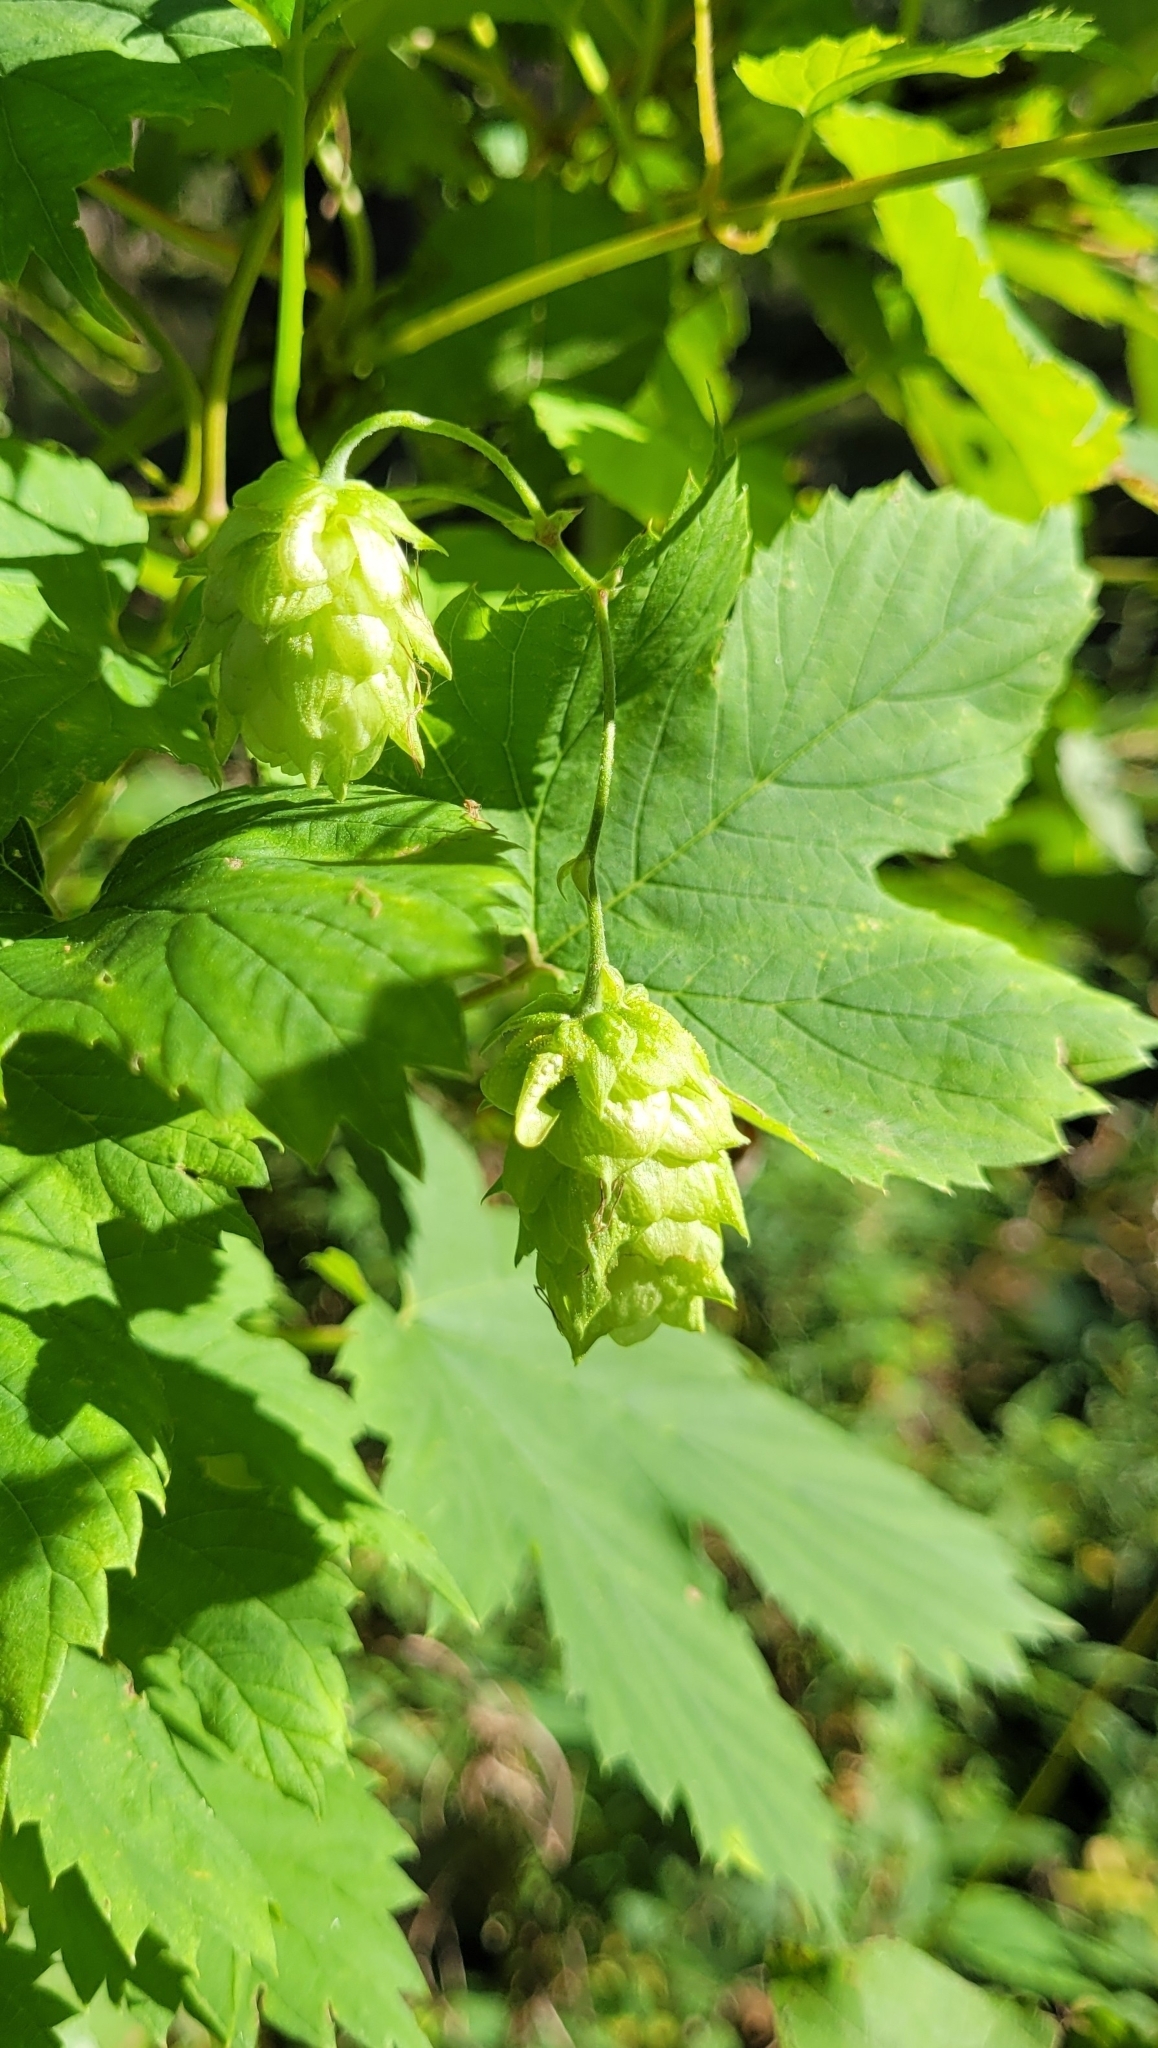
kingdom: Plantae
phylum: Tracheophyta
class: Magnoliopsida
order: Rosales
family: Cannabaceae
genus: Humulus
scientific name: Humulus lupulus
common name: Hop
